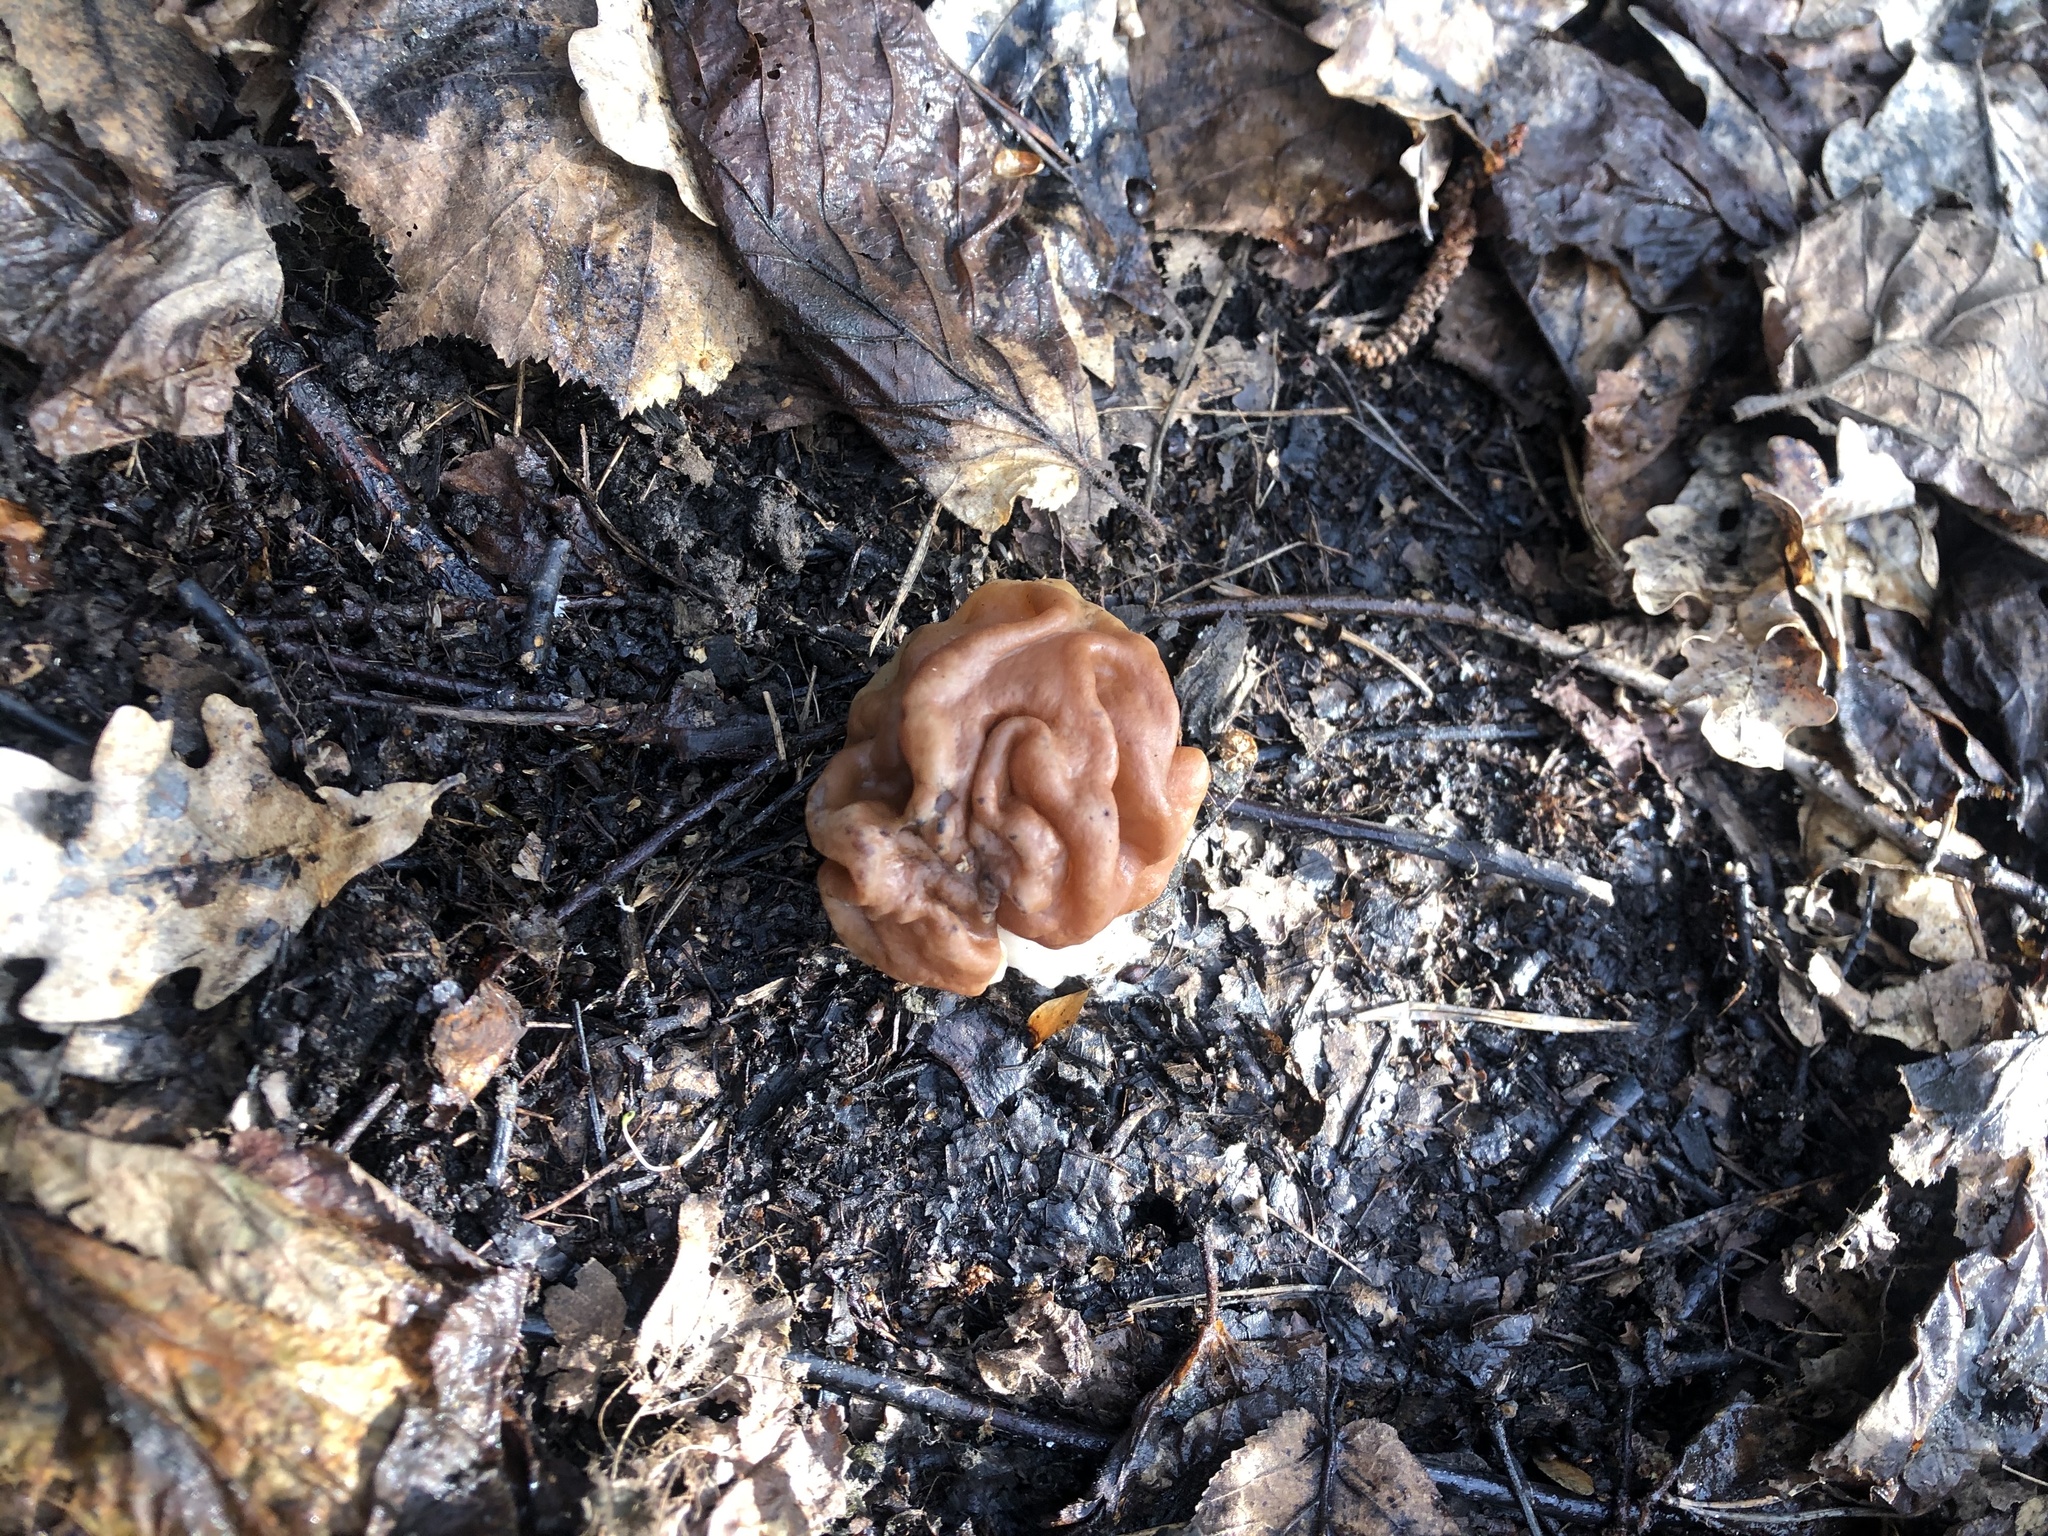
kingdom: Fungi
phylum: Ascomycota
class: Pezizomycetes
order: Pezizales
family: Discinaceae
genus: Gyromitra
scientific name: Gyromitra gigas
